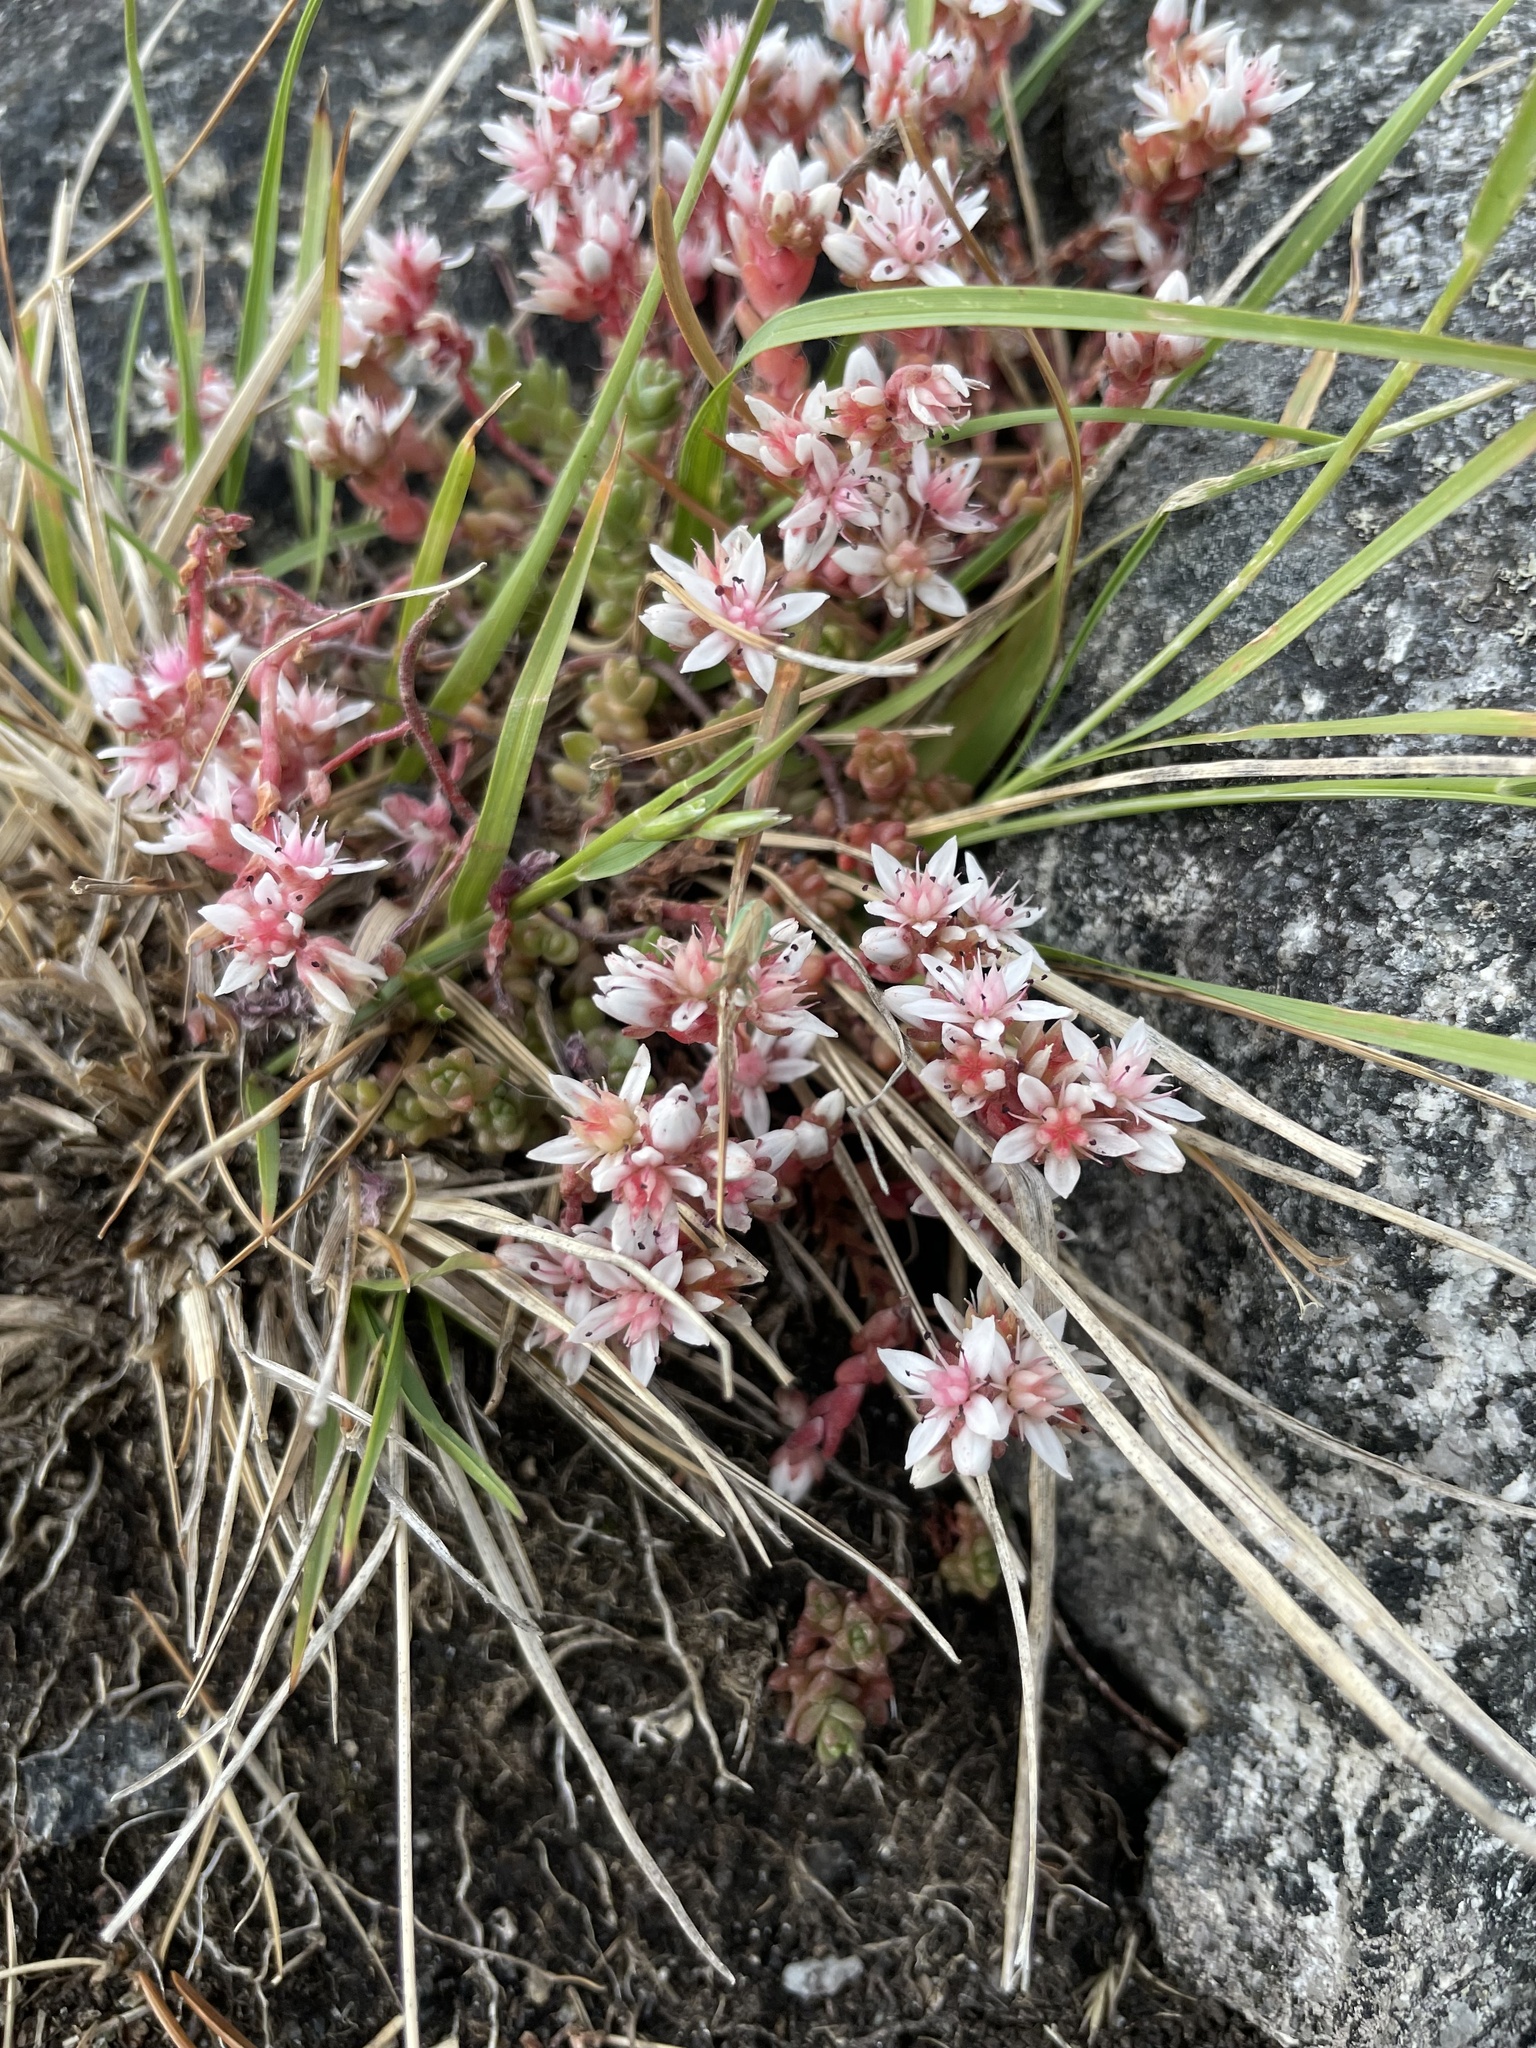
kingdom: Plantae
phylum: Tracheophyta
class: Magnoliopsida
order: Saxifragales
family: Crassulaceae
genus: Sedum
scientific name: Sedum anglicum
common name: English stonecrop
